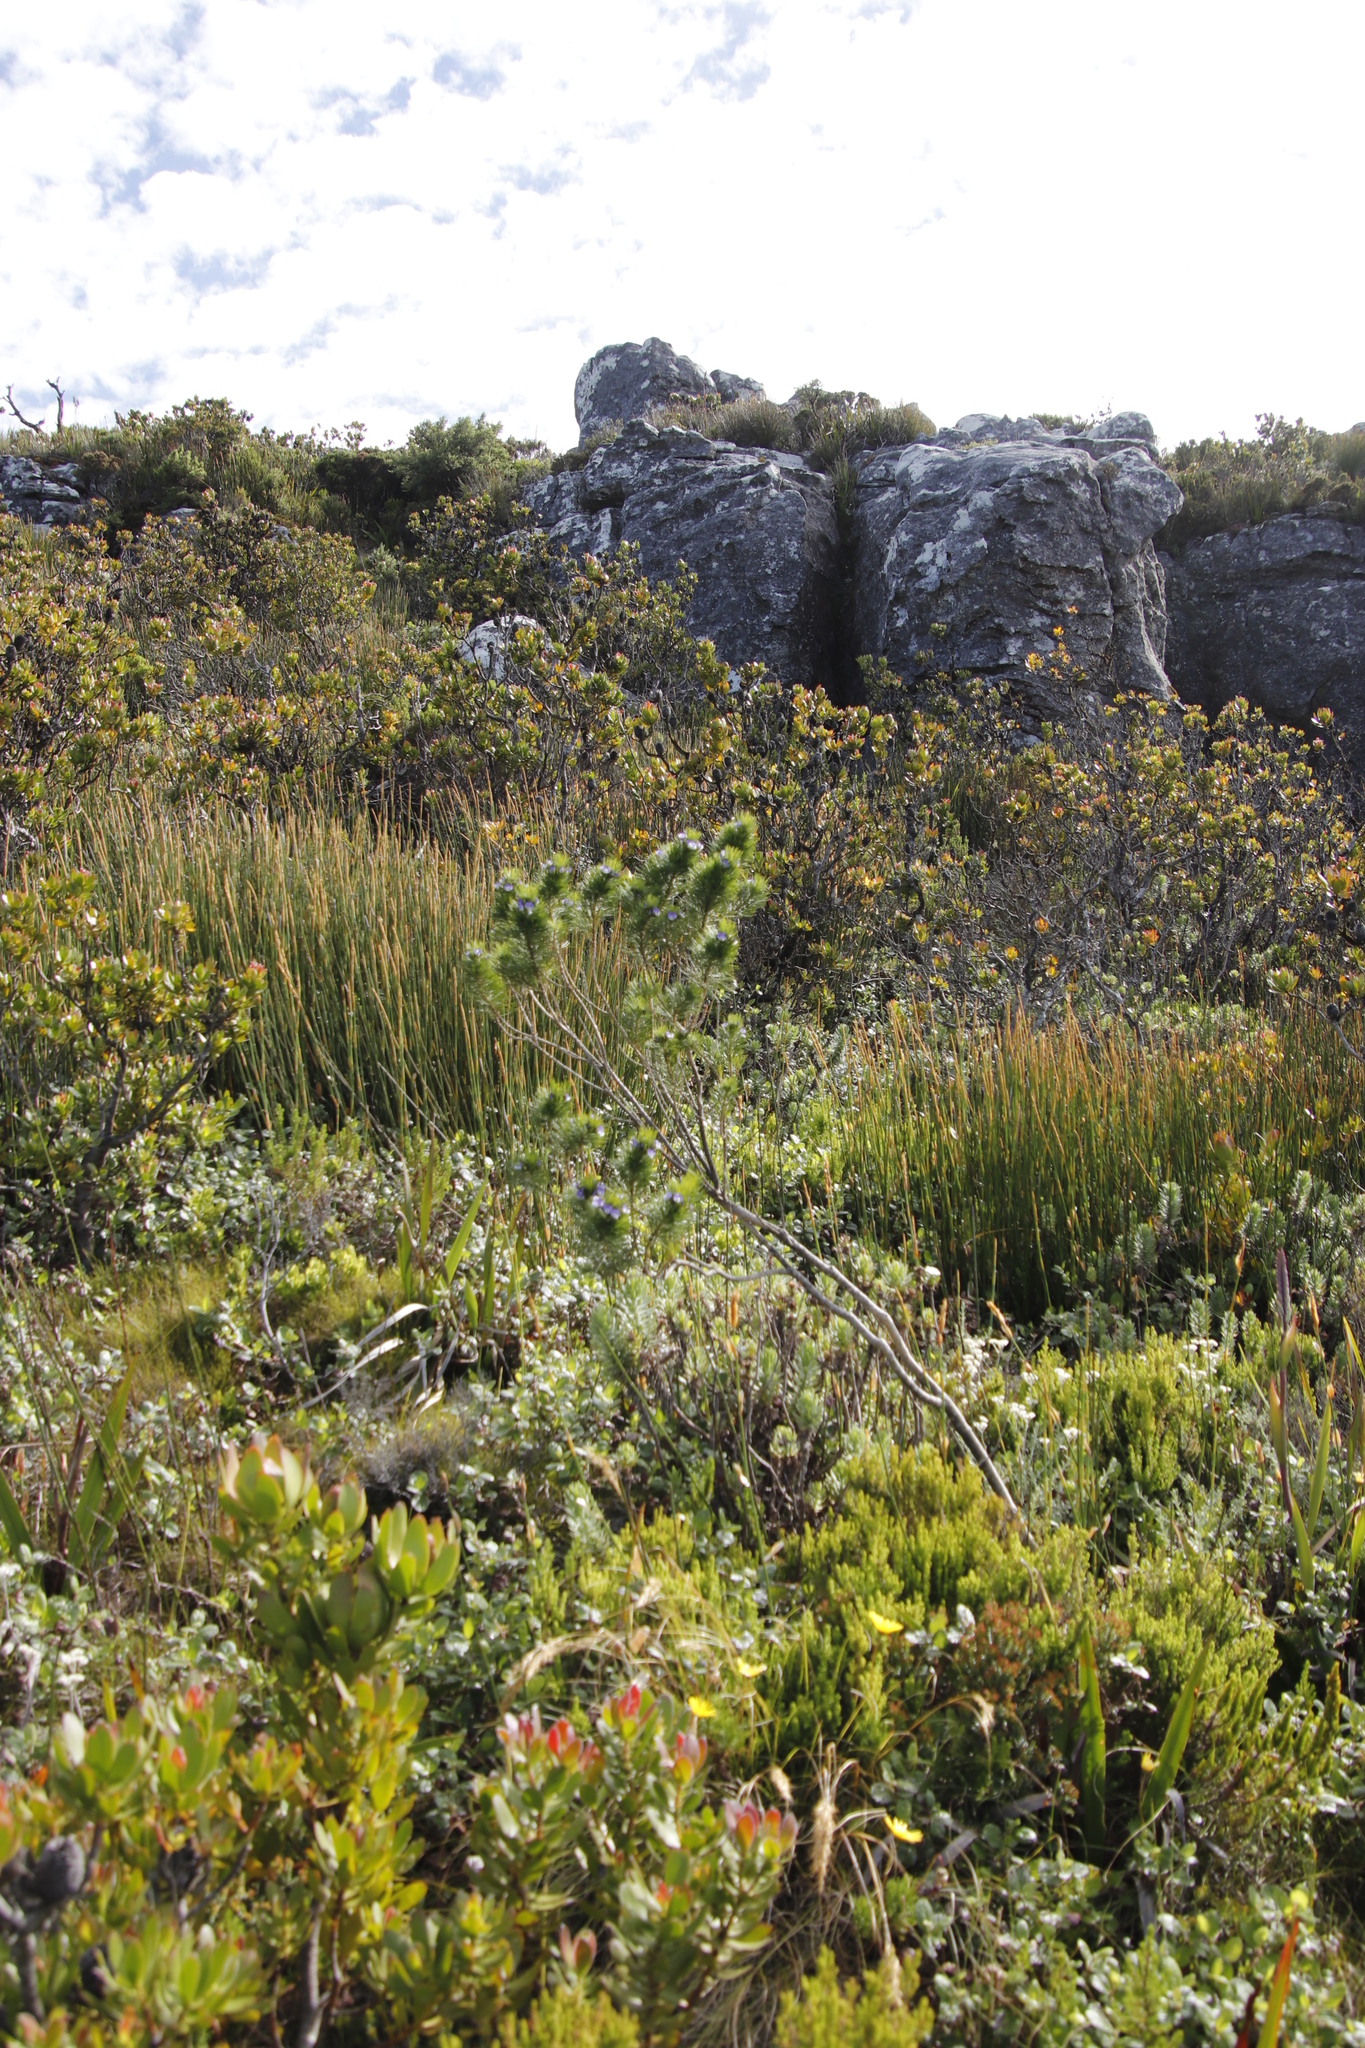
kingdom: Plantae
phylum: Tracheophyta
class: Magnoliopsida
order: Fabales
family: Fabaceae
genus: Psoralea
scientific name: Psoralea pinnata
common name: African scurfpea
